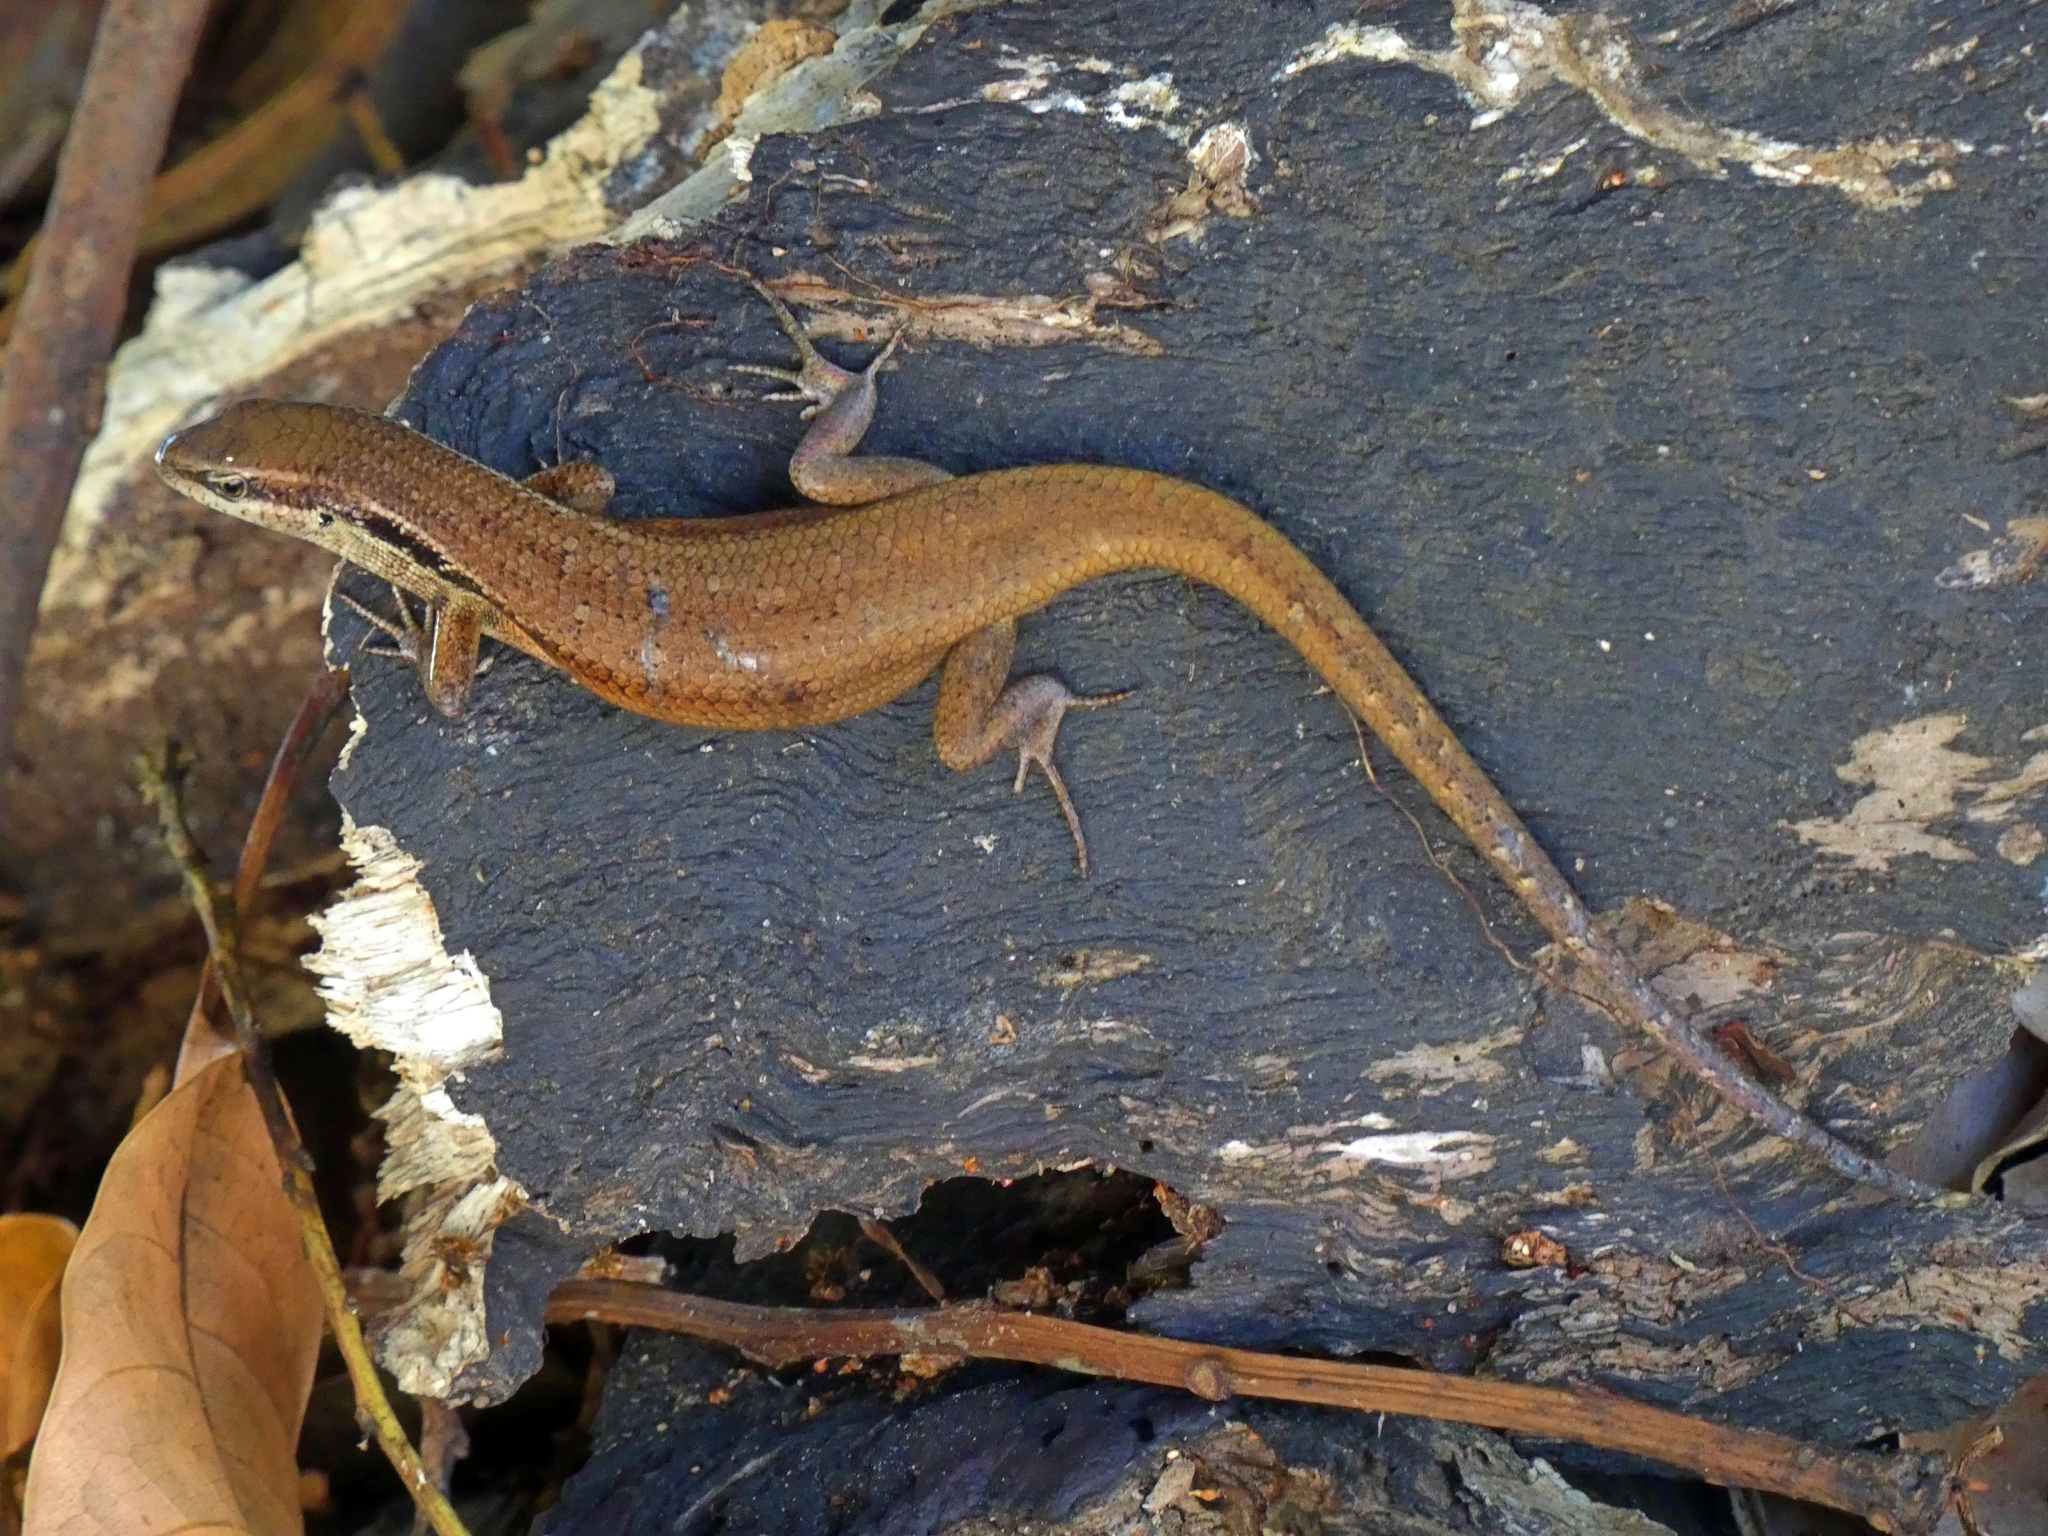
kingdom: Animalia
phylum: Chordata
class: Squamata
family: Scincidae
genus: Carlia
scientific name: Carlia longipes
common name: Closed-litter rainbow-skink
